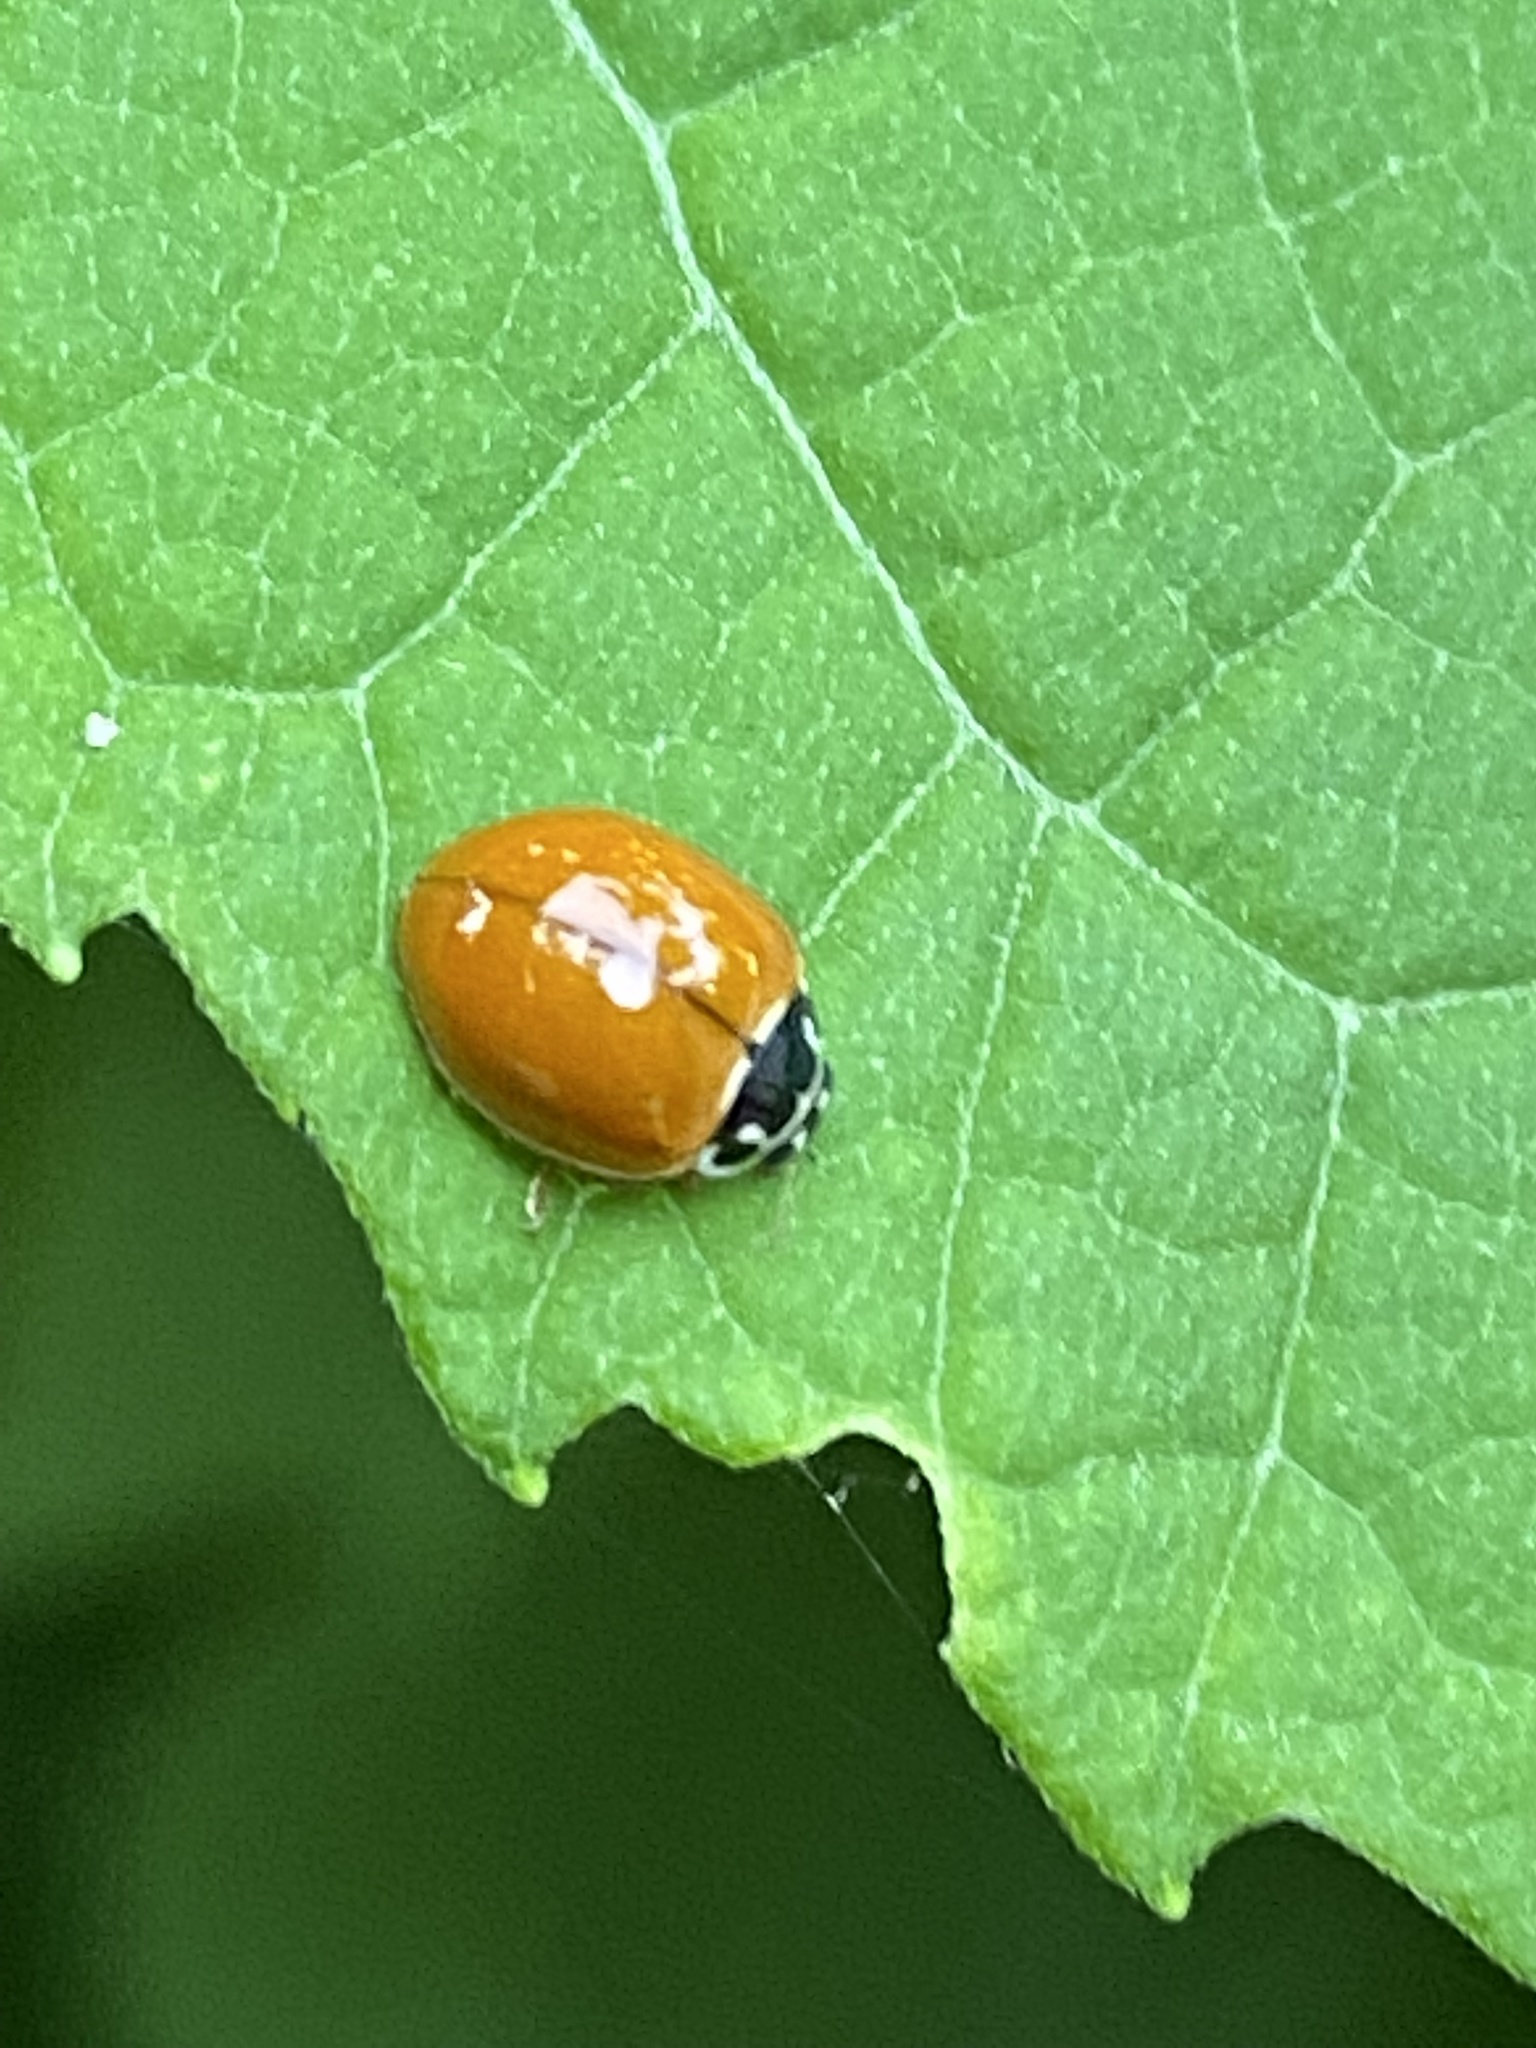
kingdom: Animalia
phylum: Arthropoda
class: Insecta
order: Coleoptera
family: Coccinellidae
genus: Cycloneda
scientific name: Cycloneda munda
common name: Polished lady beetle
